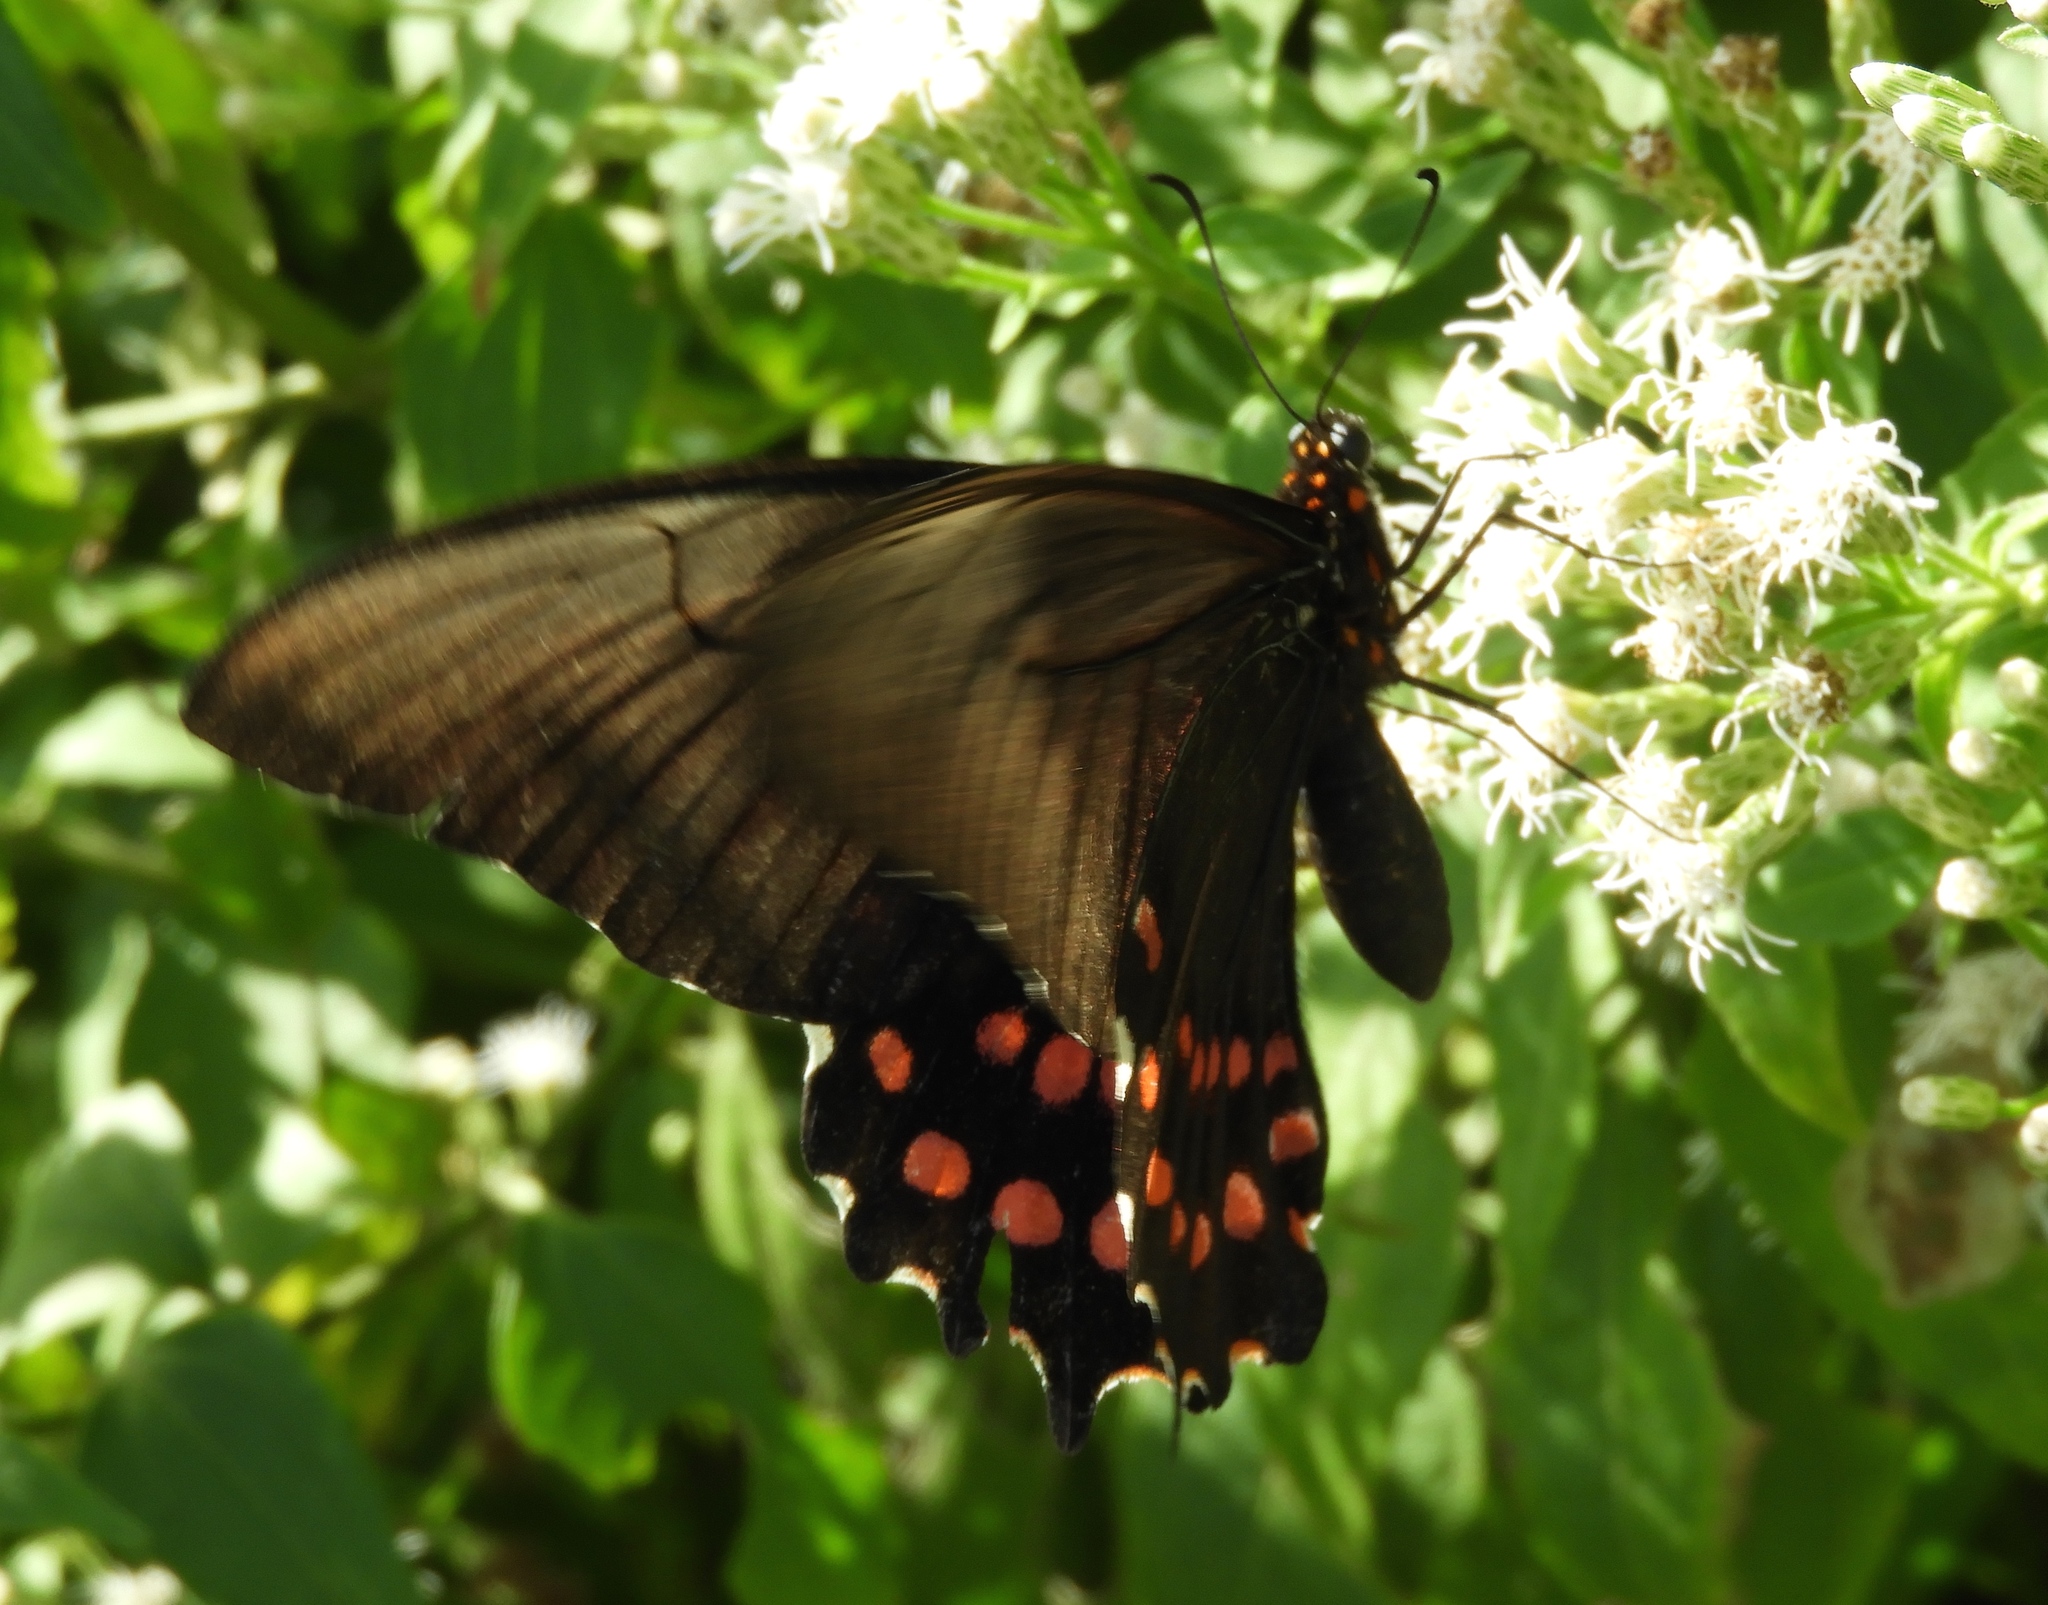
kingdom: Animalia
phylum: Arthropoda
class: Insecta
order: Lepidoptera
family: Papilionidae
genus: Heraclides
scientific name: Heraclides rogeri
